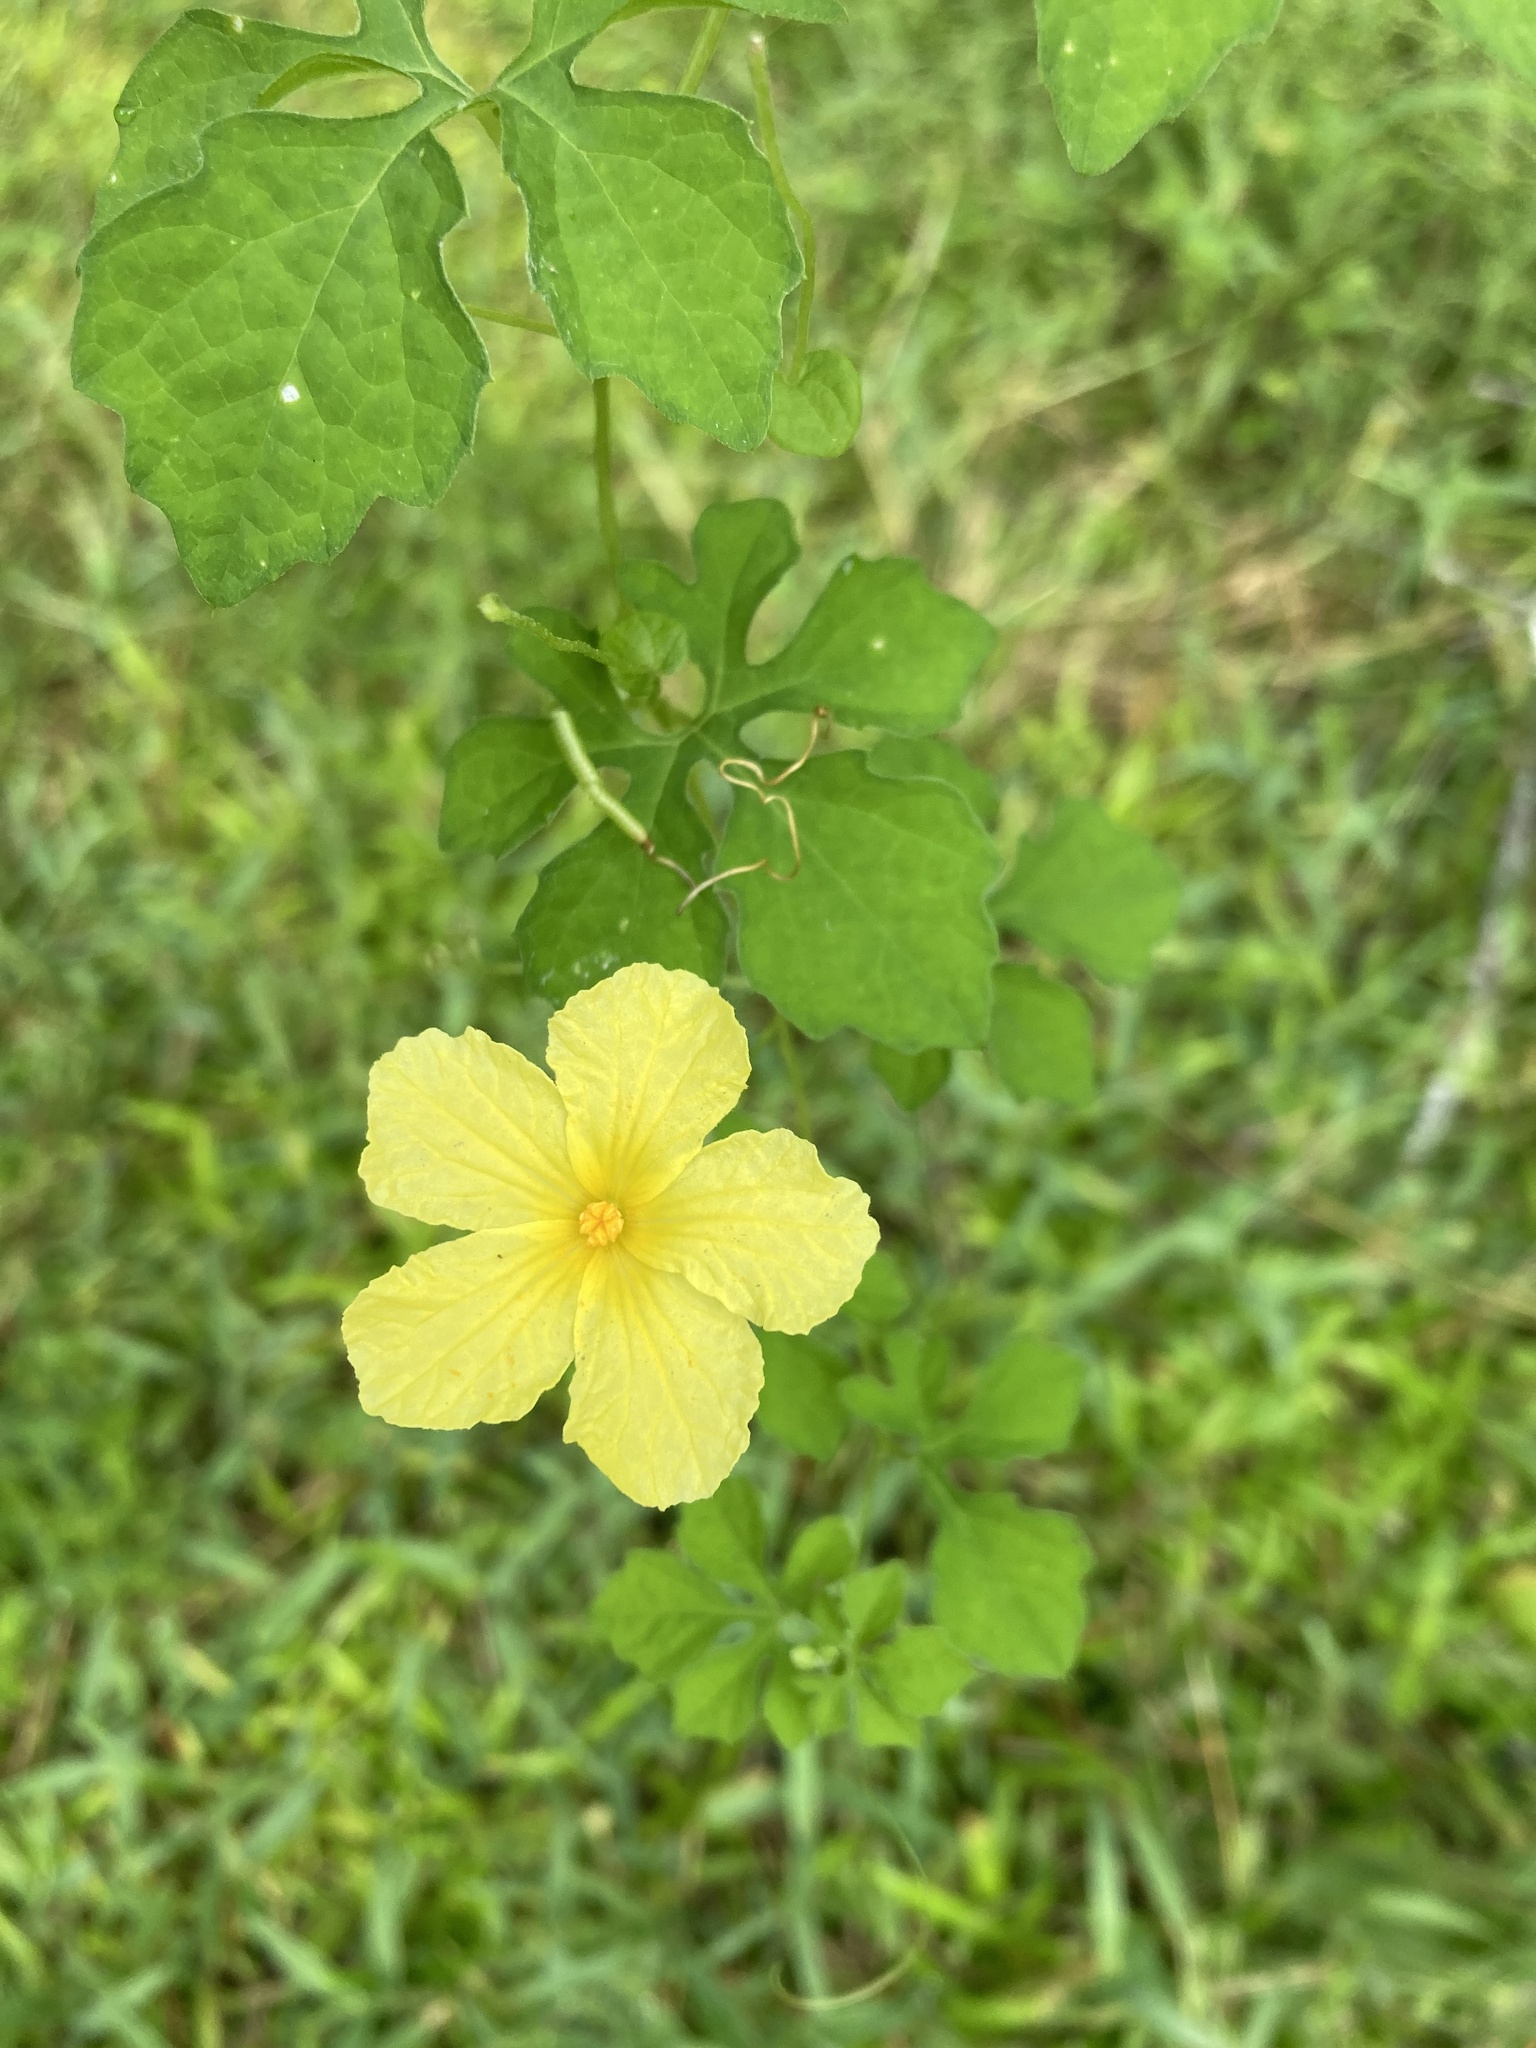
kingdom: Plantae
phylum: Tracheophyta
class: Magnoliopsida
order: Cucurbitales
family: Cucurbitaceae
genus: Momordica
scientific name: Momordica charantia
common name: Balsampear
